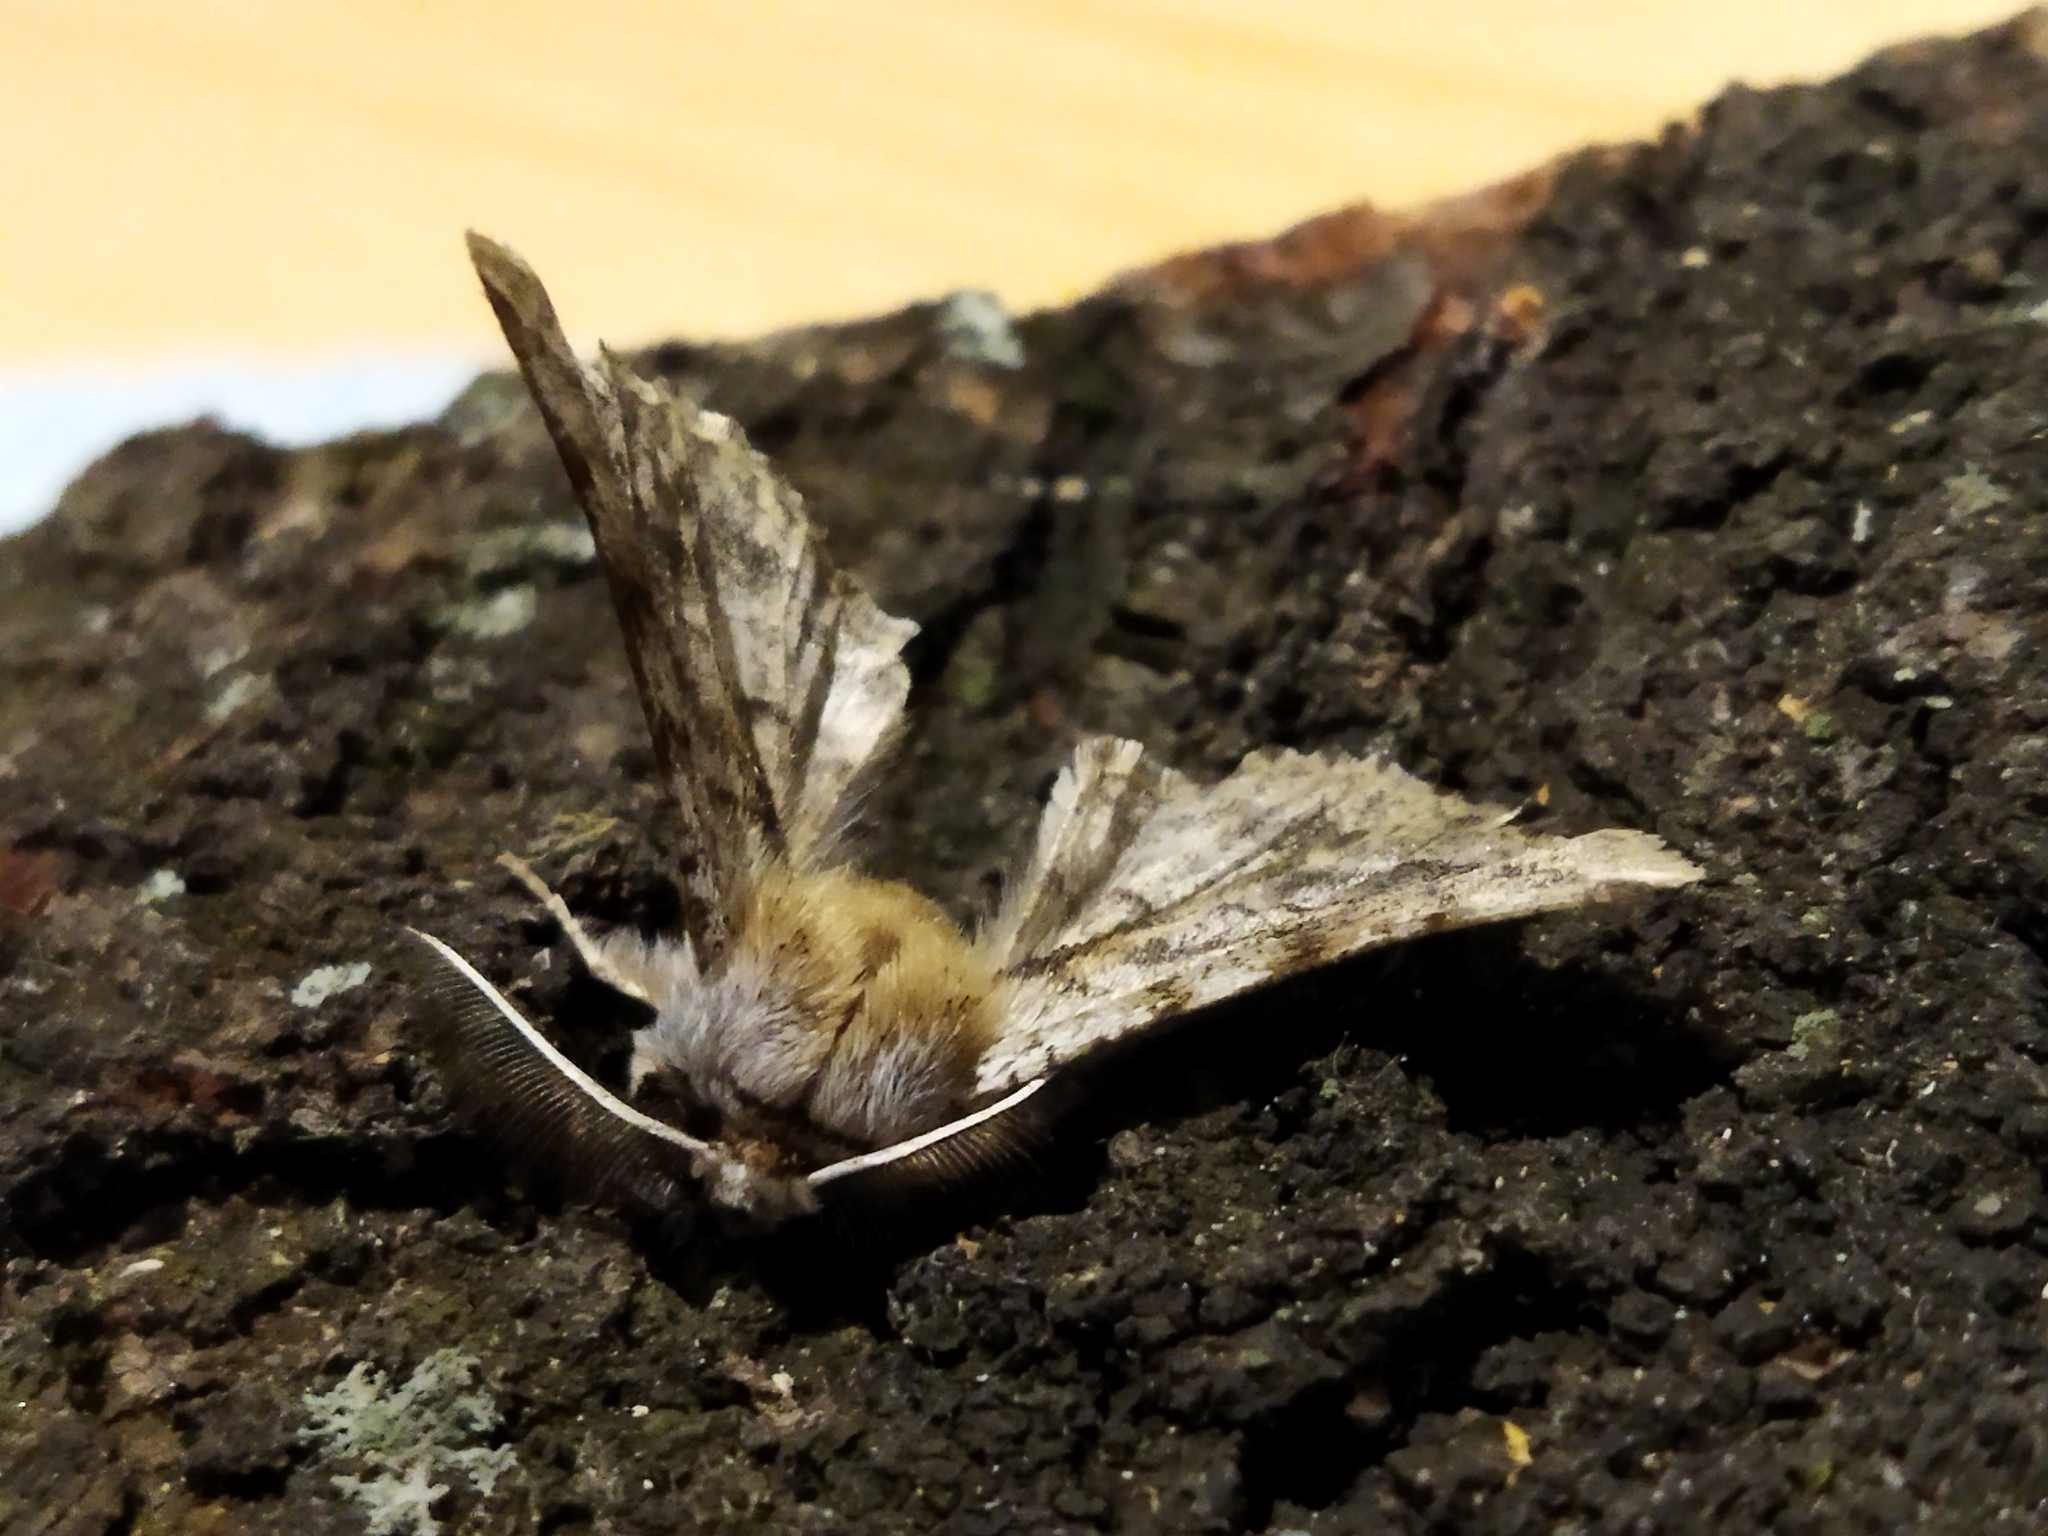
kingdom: Animalia
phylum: Arthropoda
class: Insecta
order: Lepidoptera
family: Geometridae
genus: Apochima
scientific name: Apochima flabellaria
